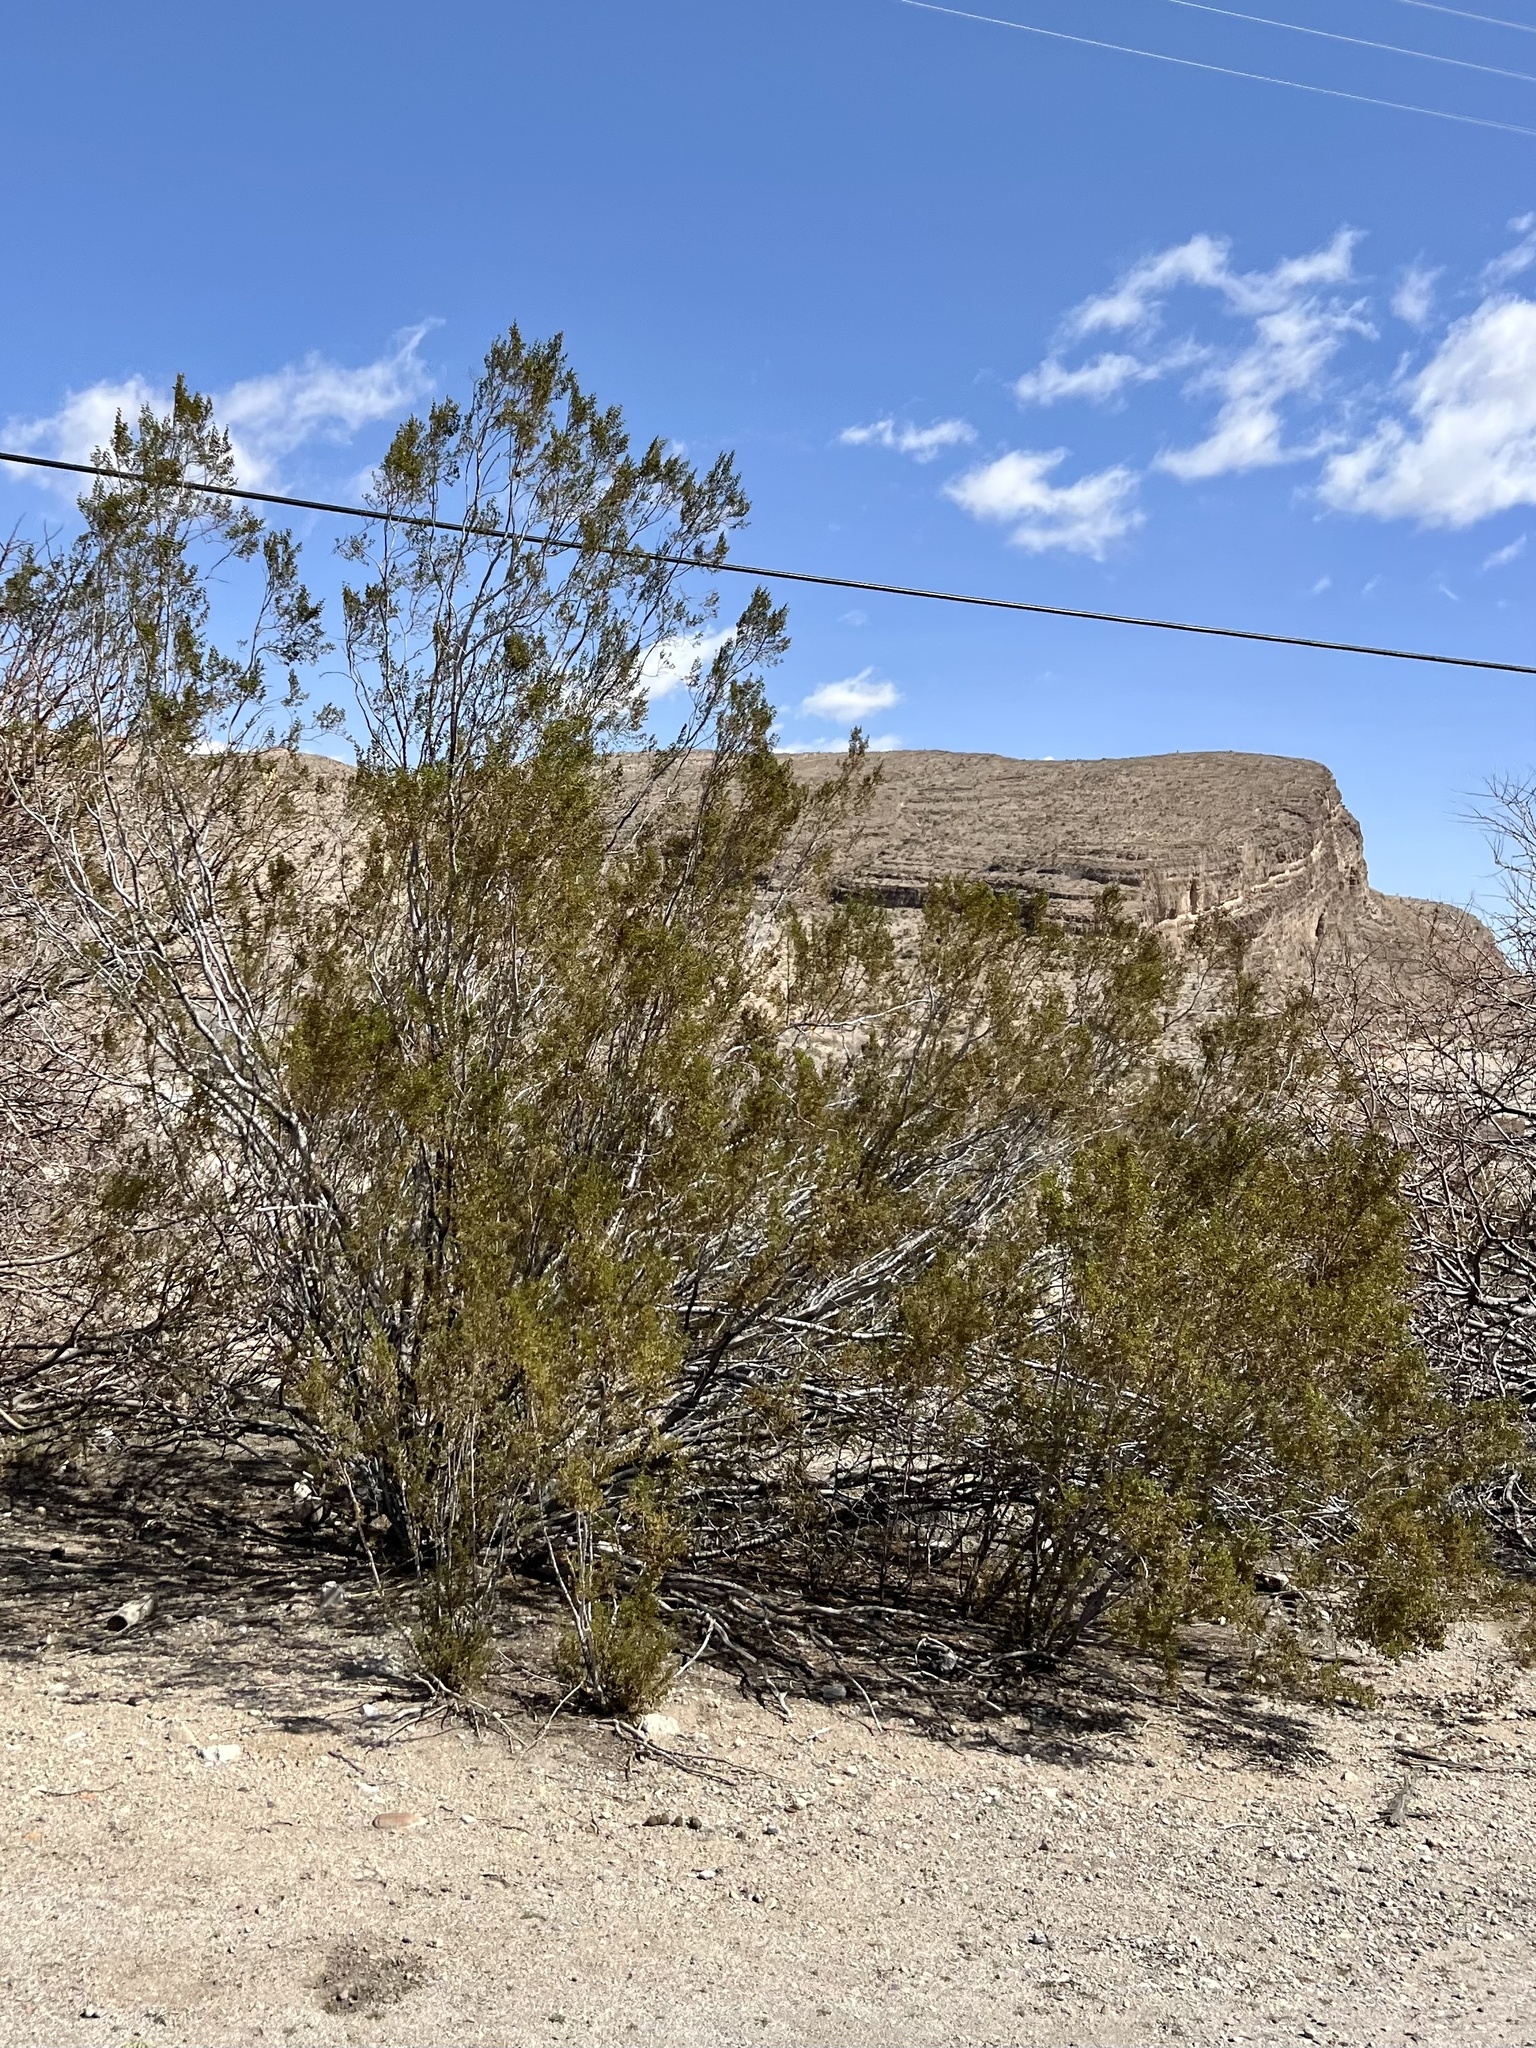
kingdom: Plantae
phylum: Tracheophyta
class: Magnoliopsida
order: Zygophyllales
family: Zygophyllaceae
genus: Larrea
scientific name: Larrea tridentata
